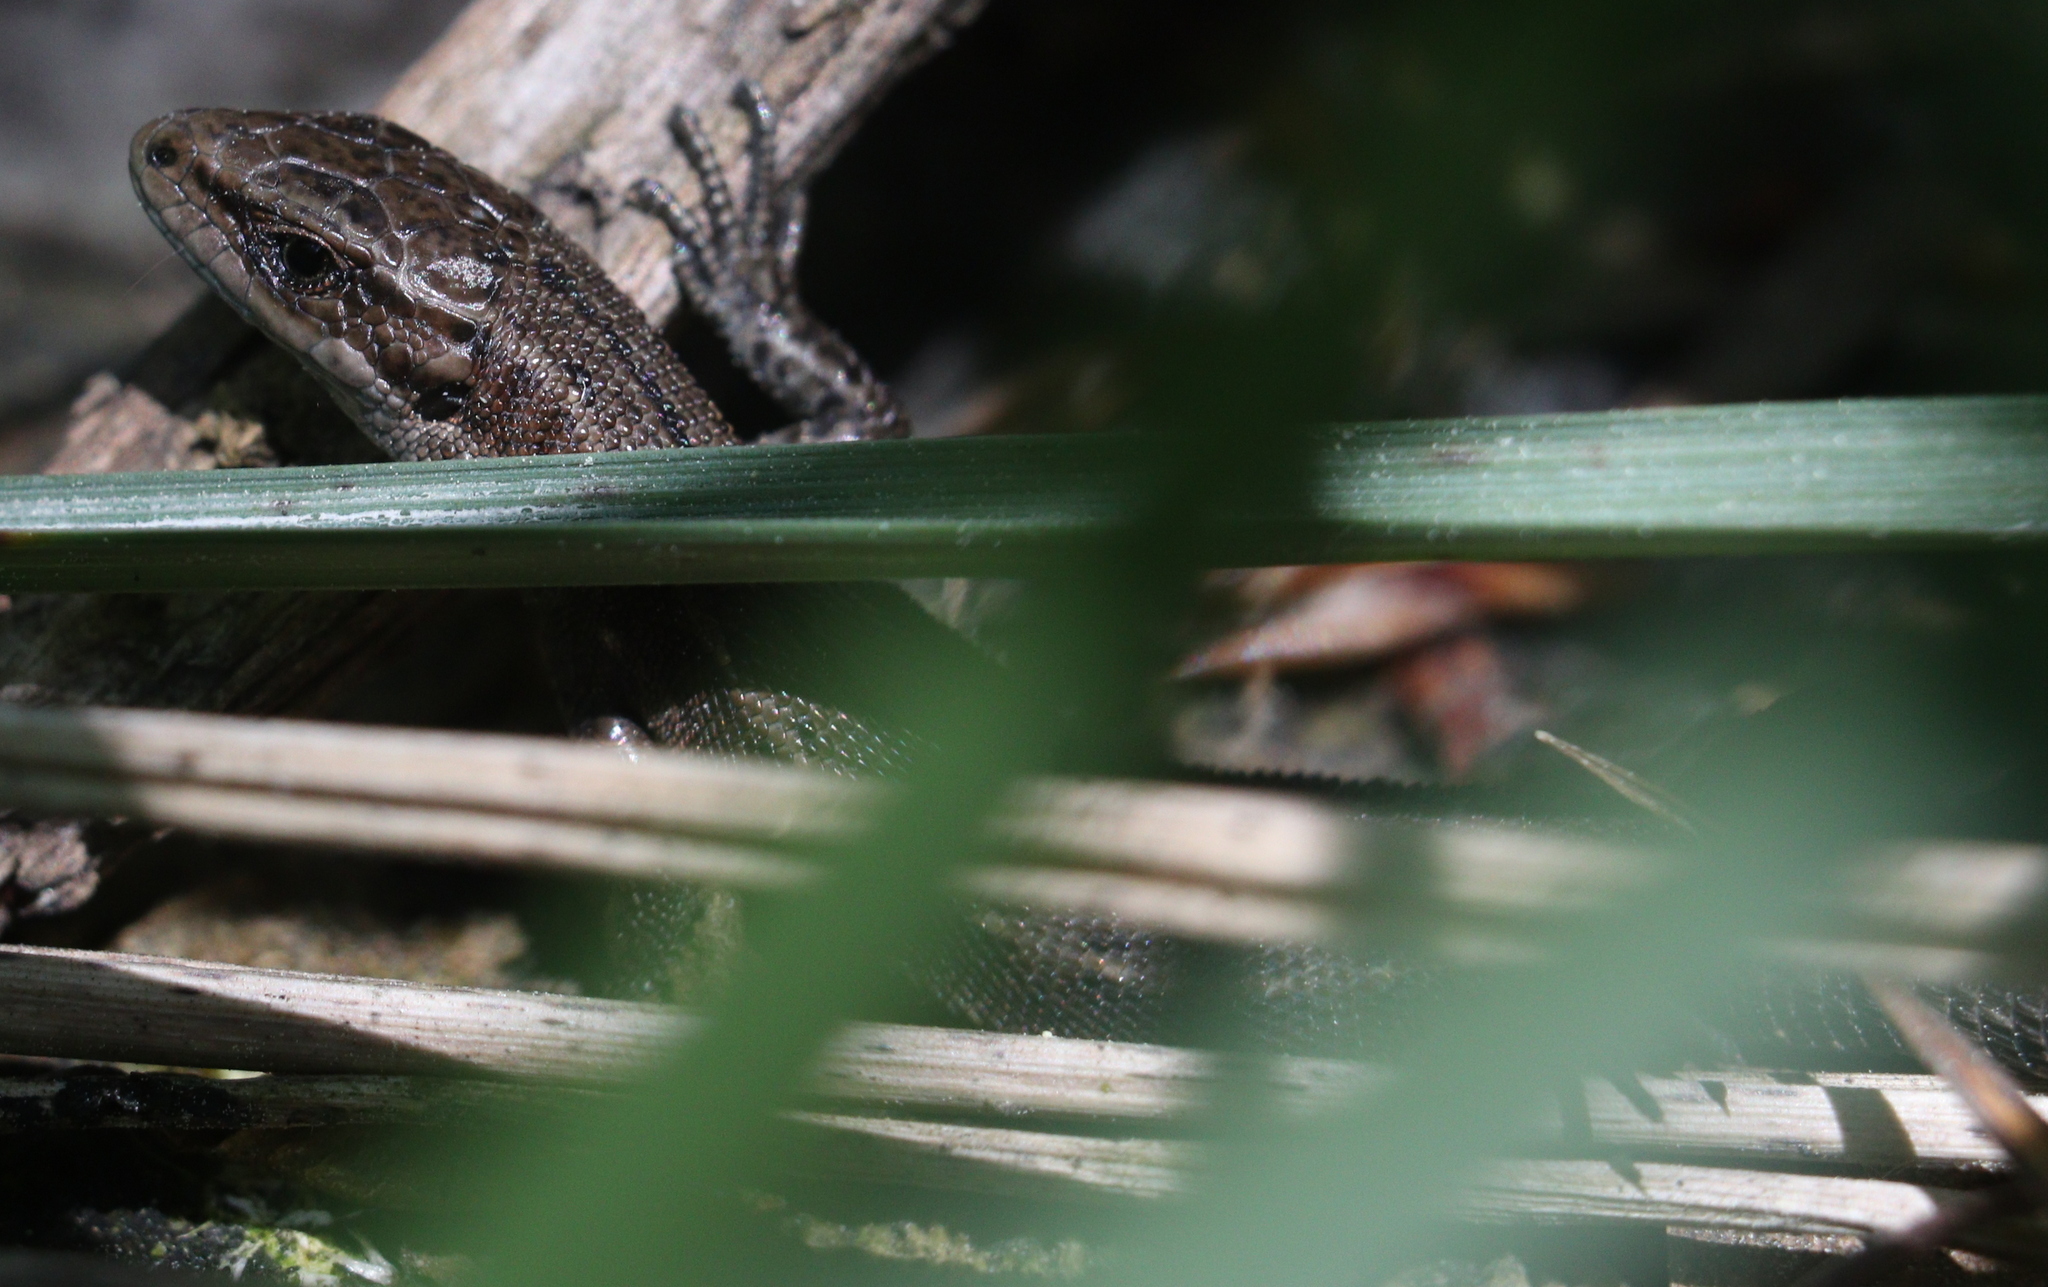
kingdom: Animalia
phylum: Chordata
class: Squamata
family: Lacertidae
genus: Zootoca
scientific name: Zootoca vivipara
